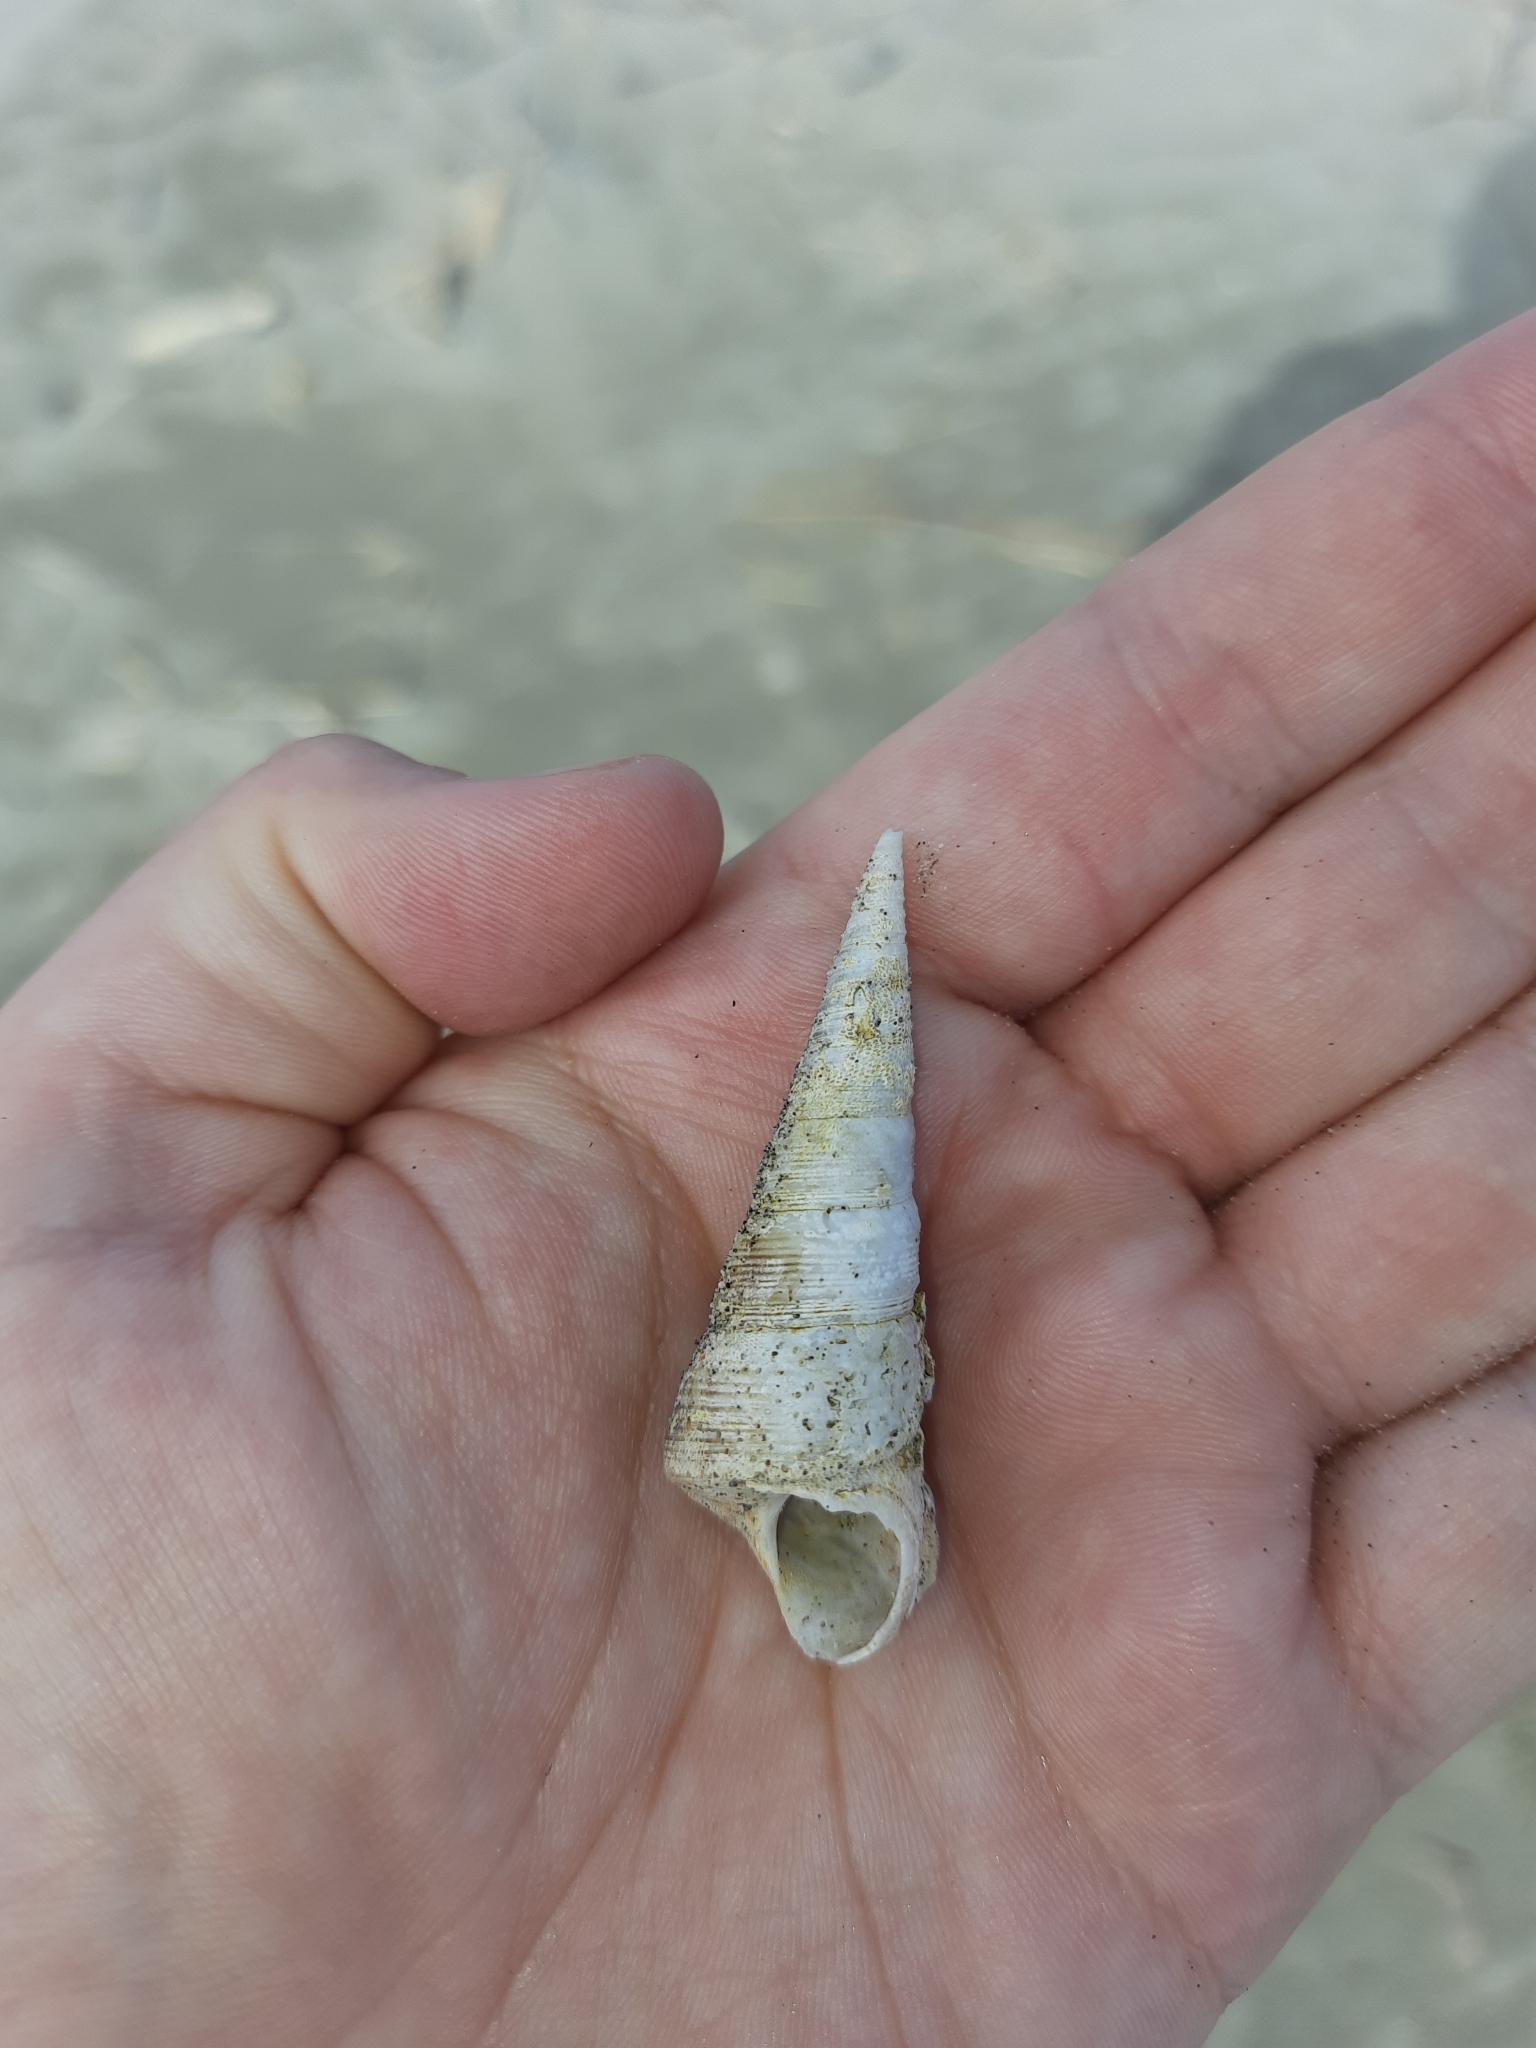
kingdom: Animalia
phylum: Mollusca
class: Gastropoda
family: Turritellidae
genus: Maoricolpus
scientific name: Maoricolpus roseus
